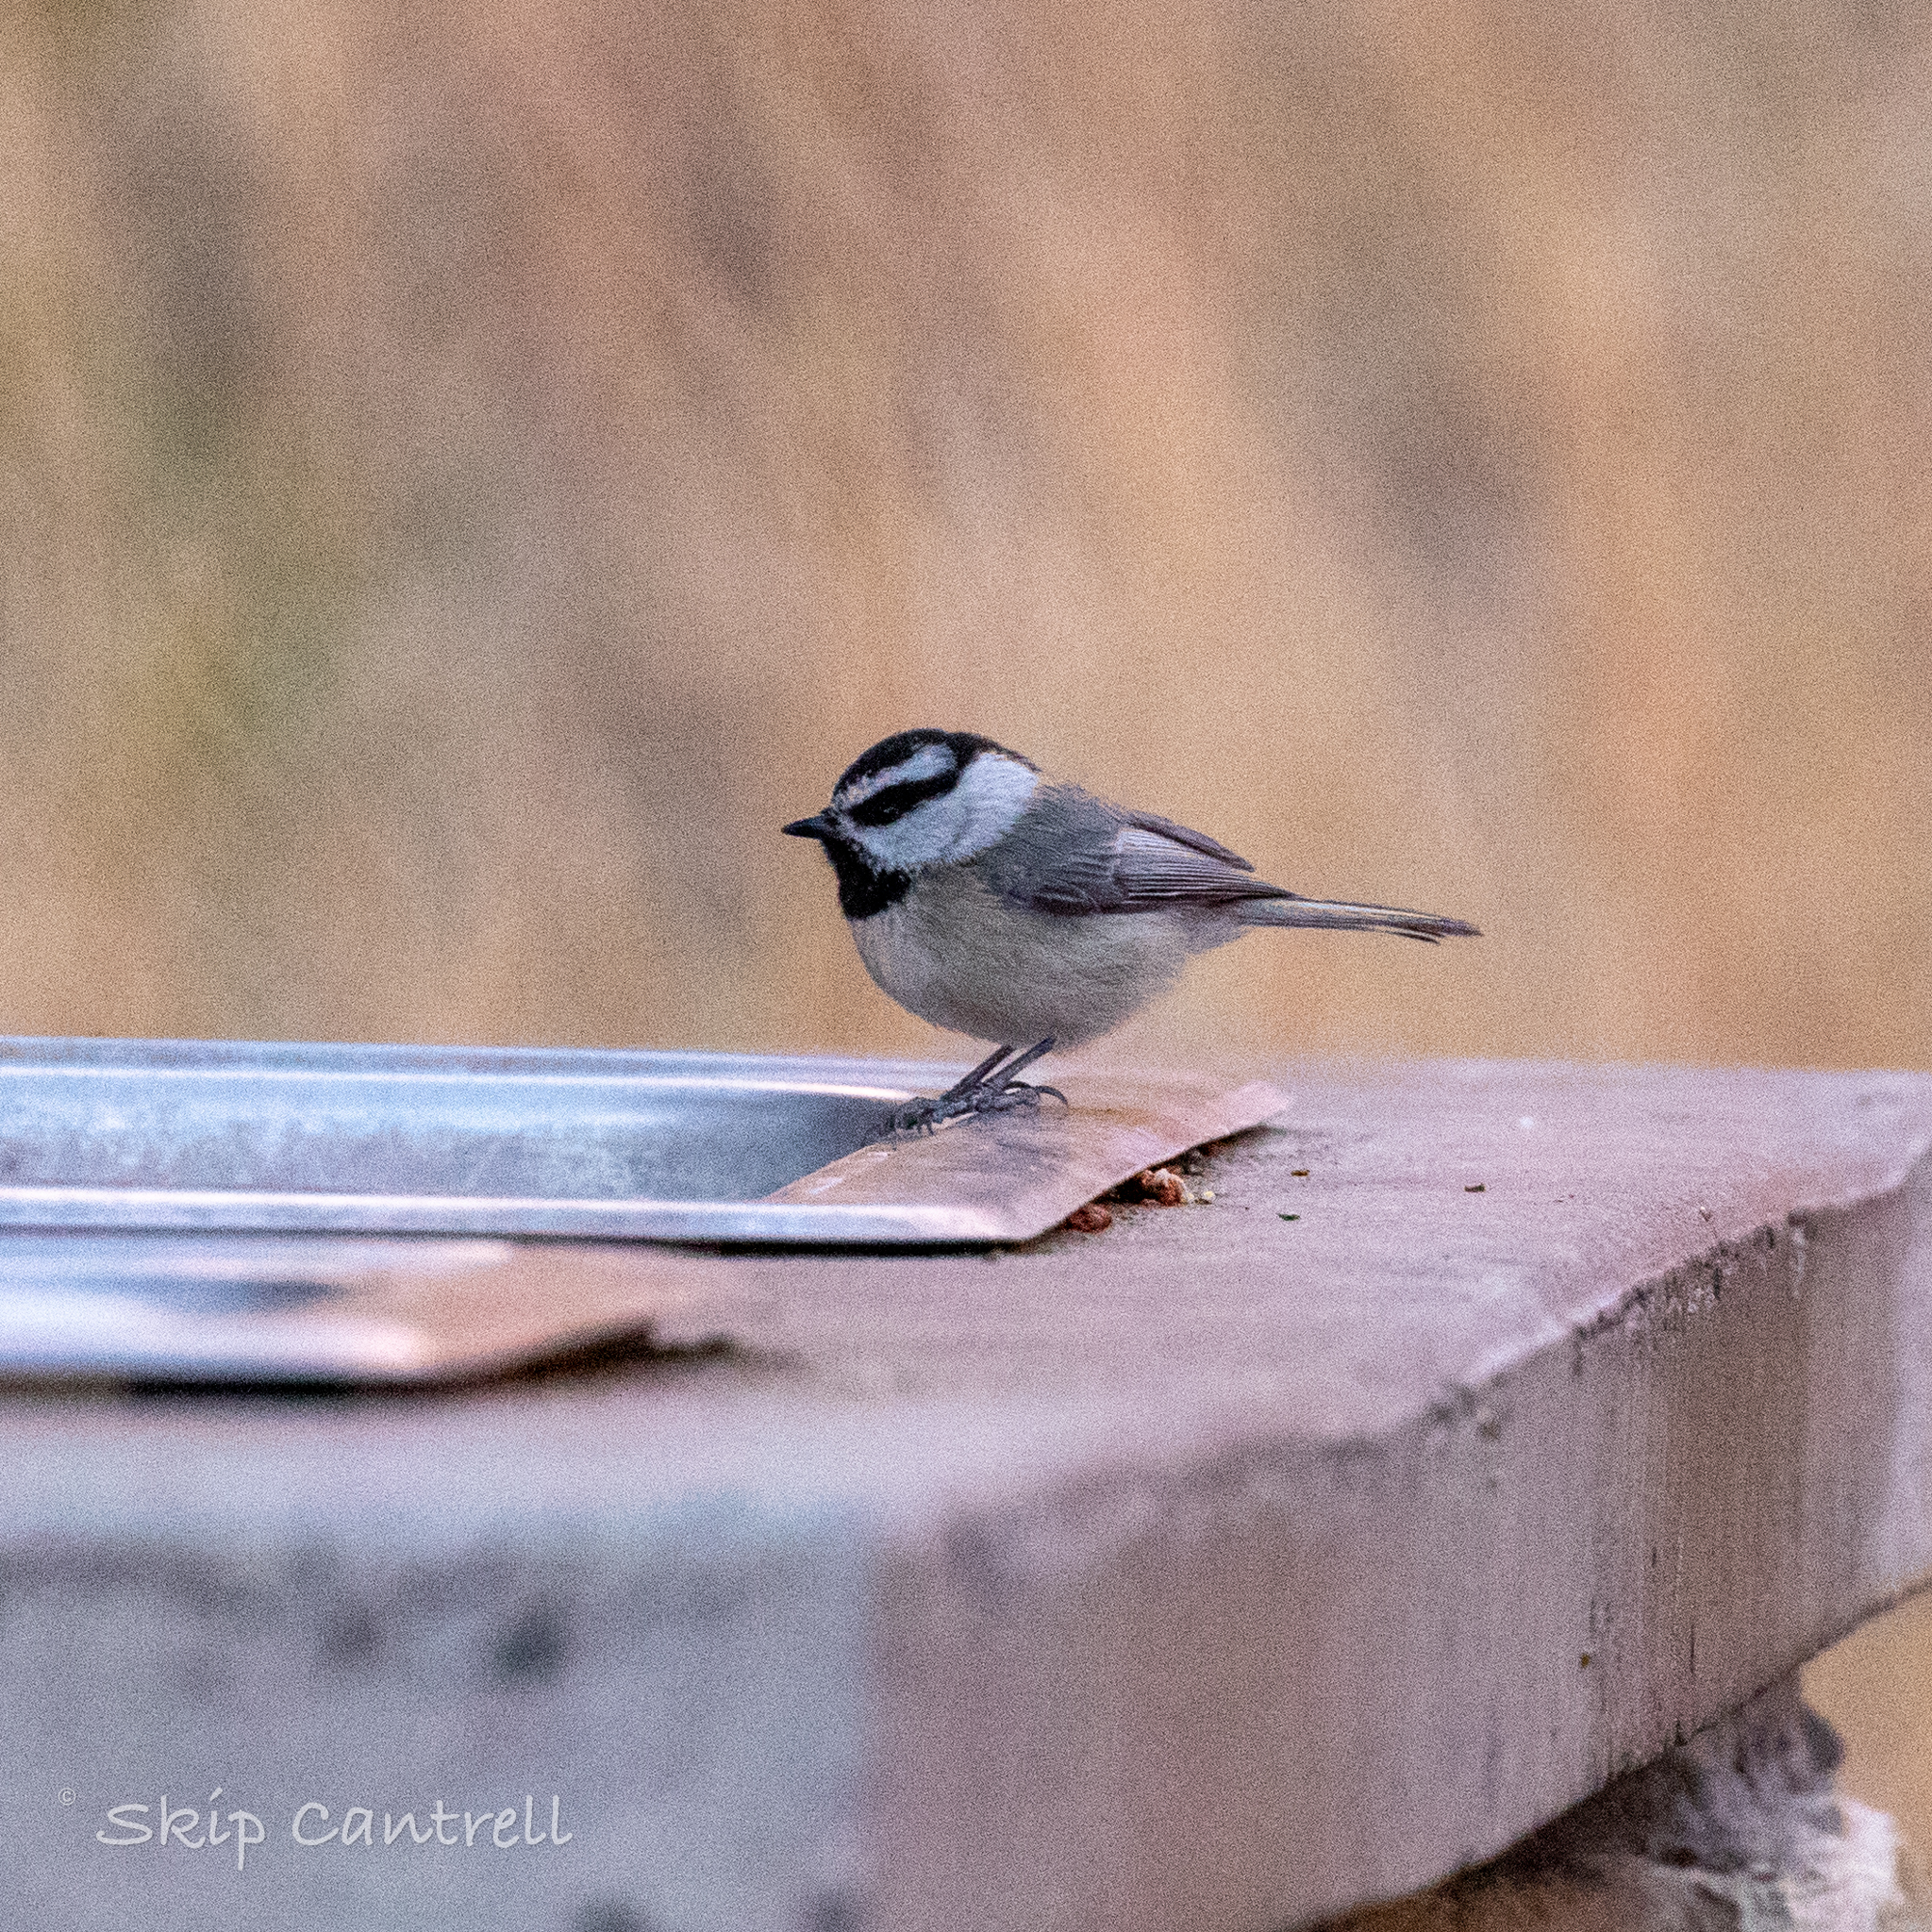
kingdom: Animalia
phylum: Chordata
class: Aves
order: Passeriformes
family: Paridae
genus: Poecile
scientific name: Poecile gambeli
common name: Mountain chickadee
